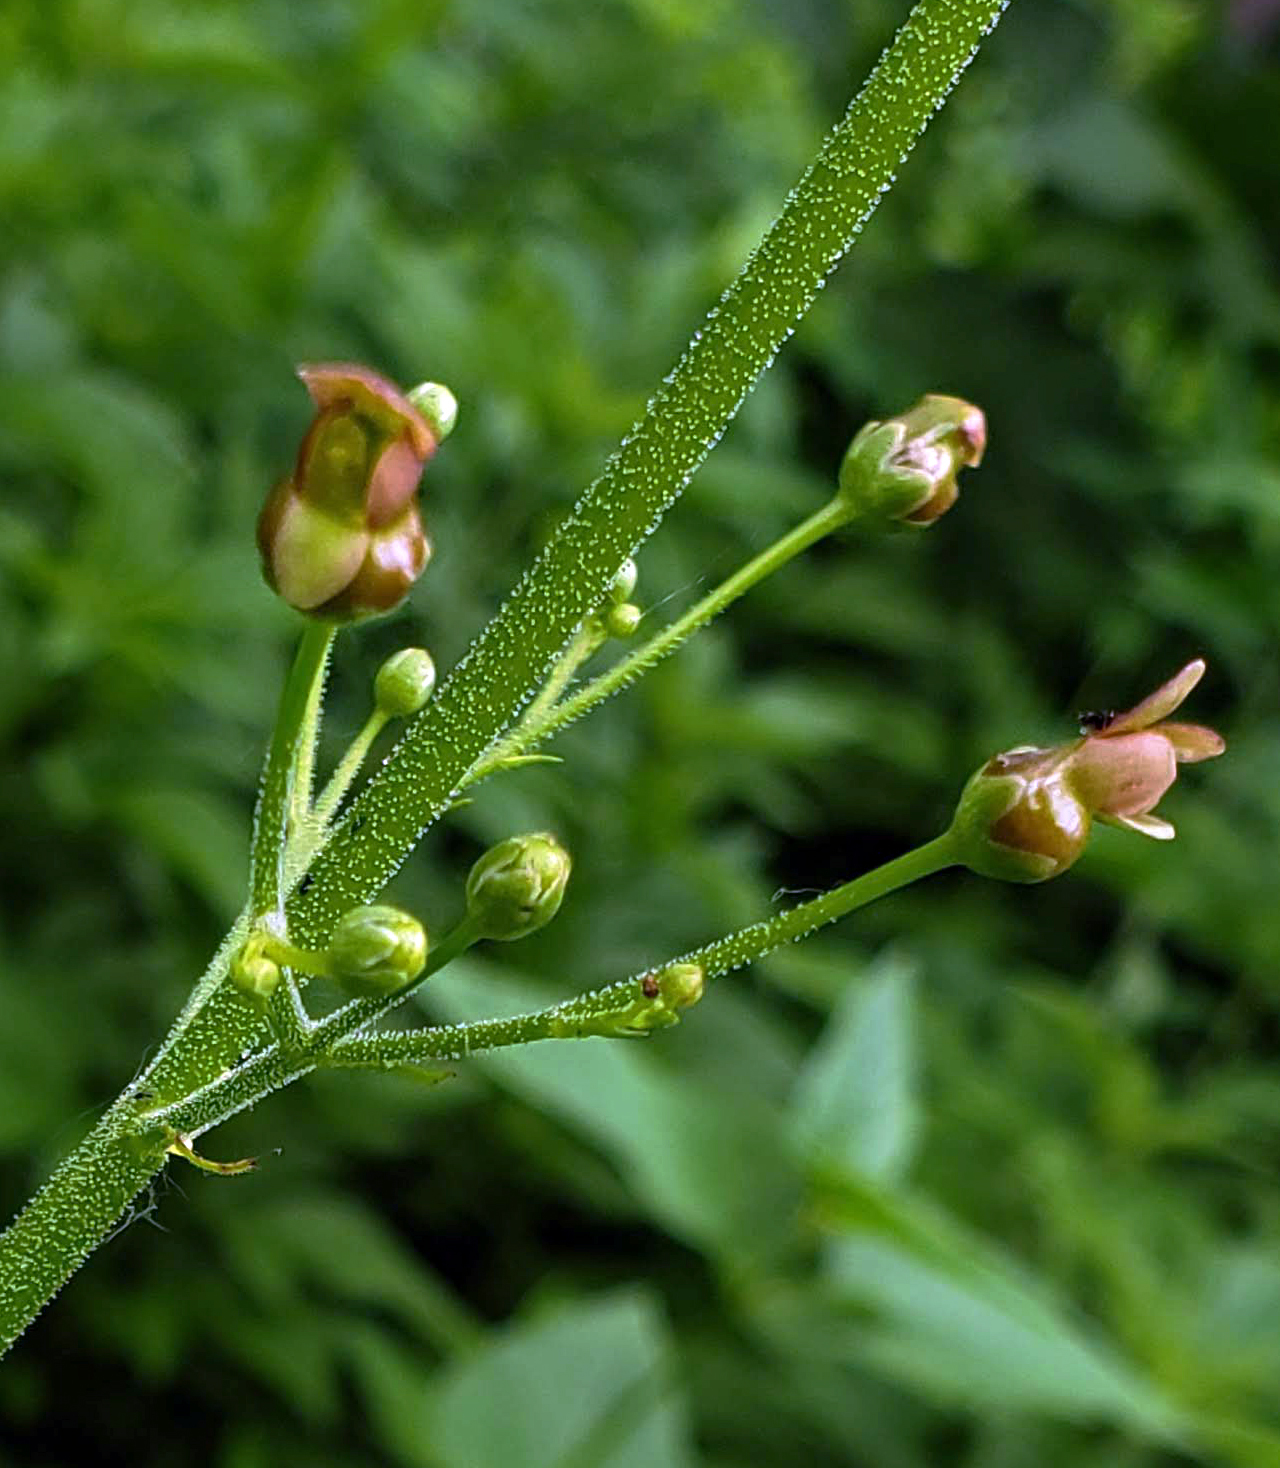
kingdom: Plantae
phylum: Tracheophyta
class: Magnoliopsida
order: Lamiales
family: Scrophulariaceae
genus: Scrophularia
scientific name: Scrophularia lanceolata
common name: American figwort
